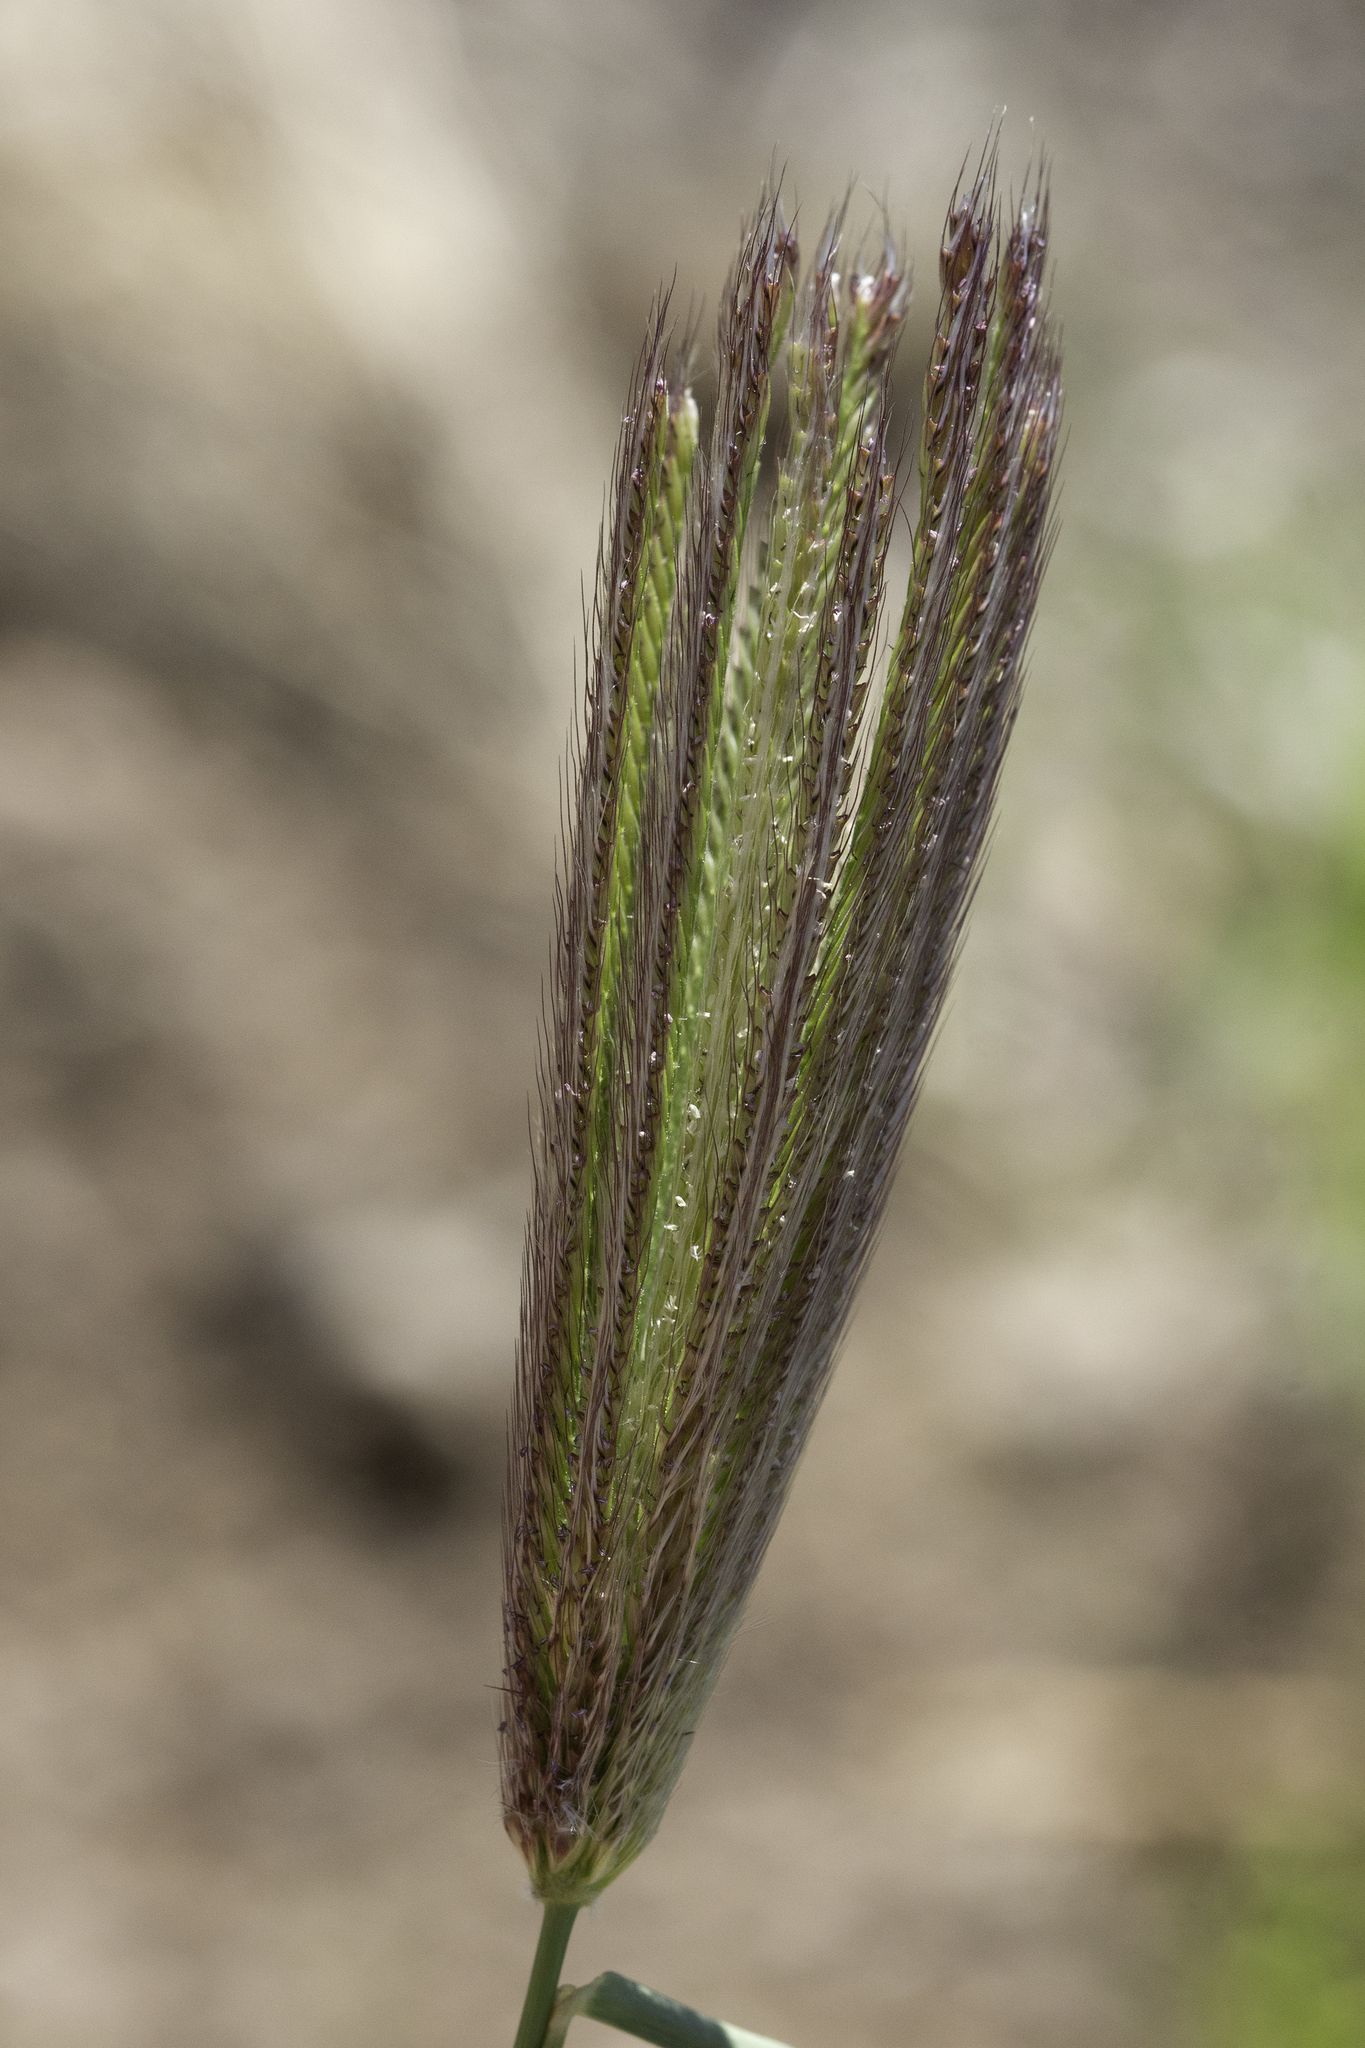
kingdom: Plantae
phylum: Tracheophyta
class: Liliopsida
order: Poales
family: Poaceae
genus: Chloris
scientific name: Chloris virgata
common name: Feathery rhodes-grass
